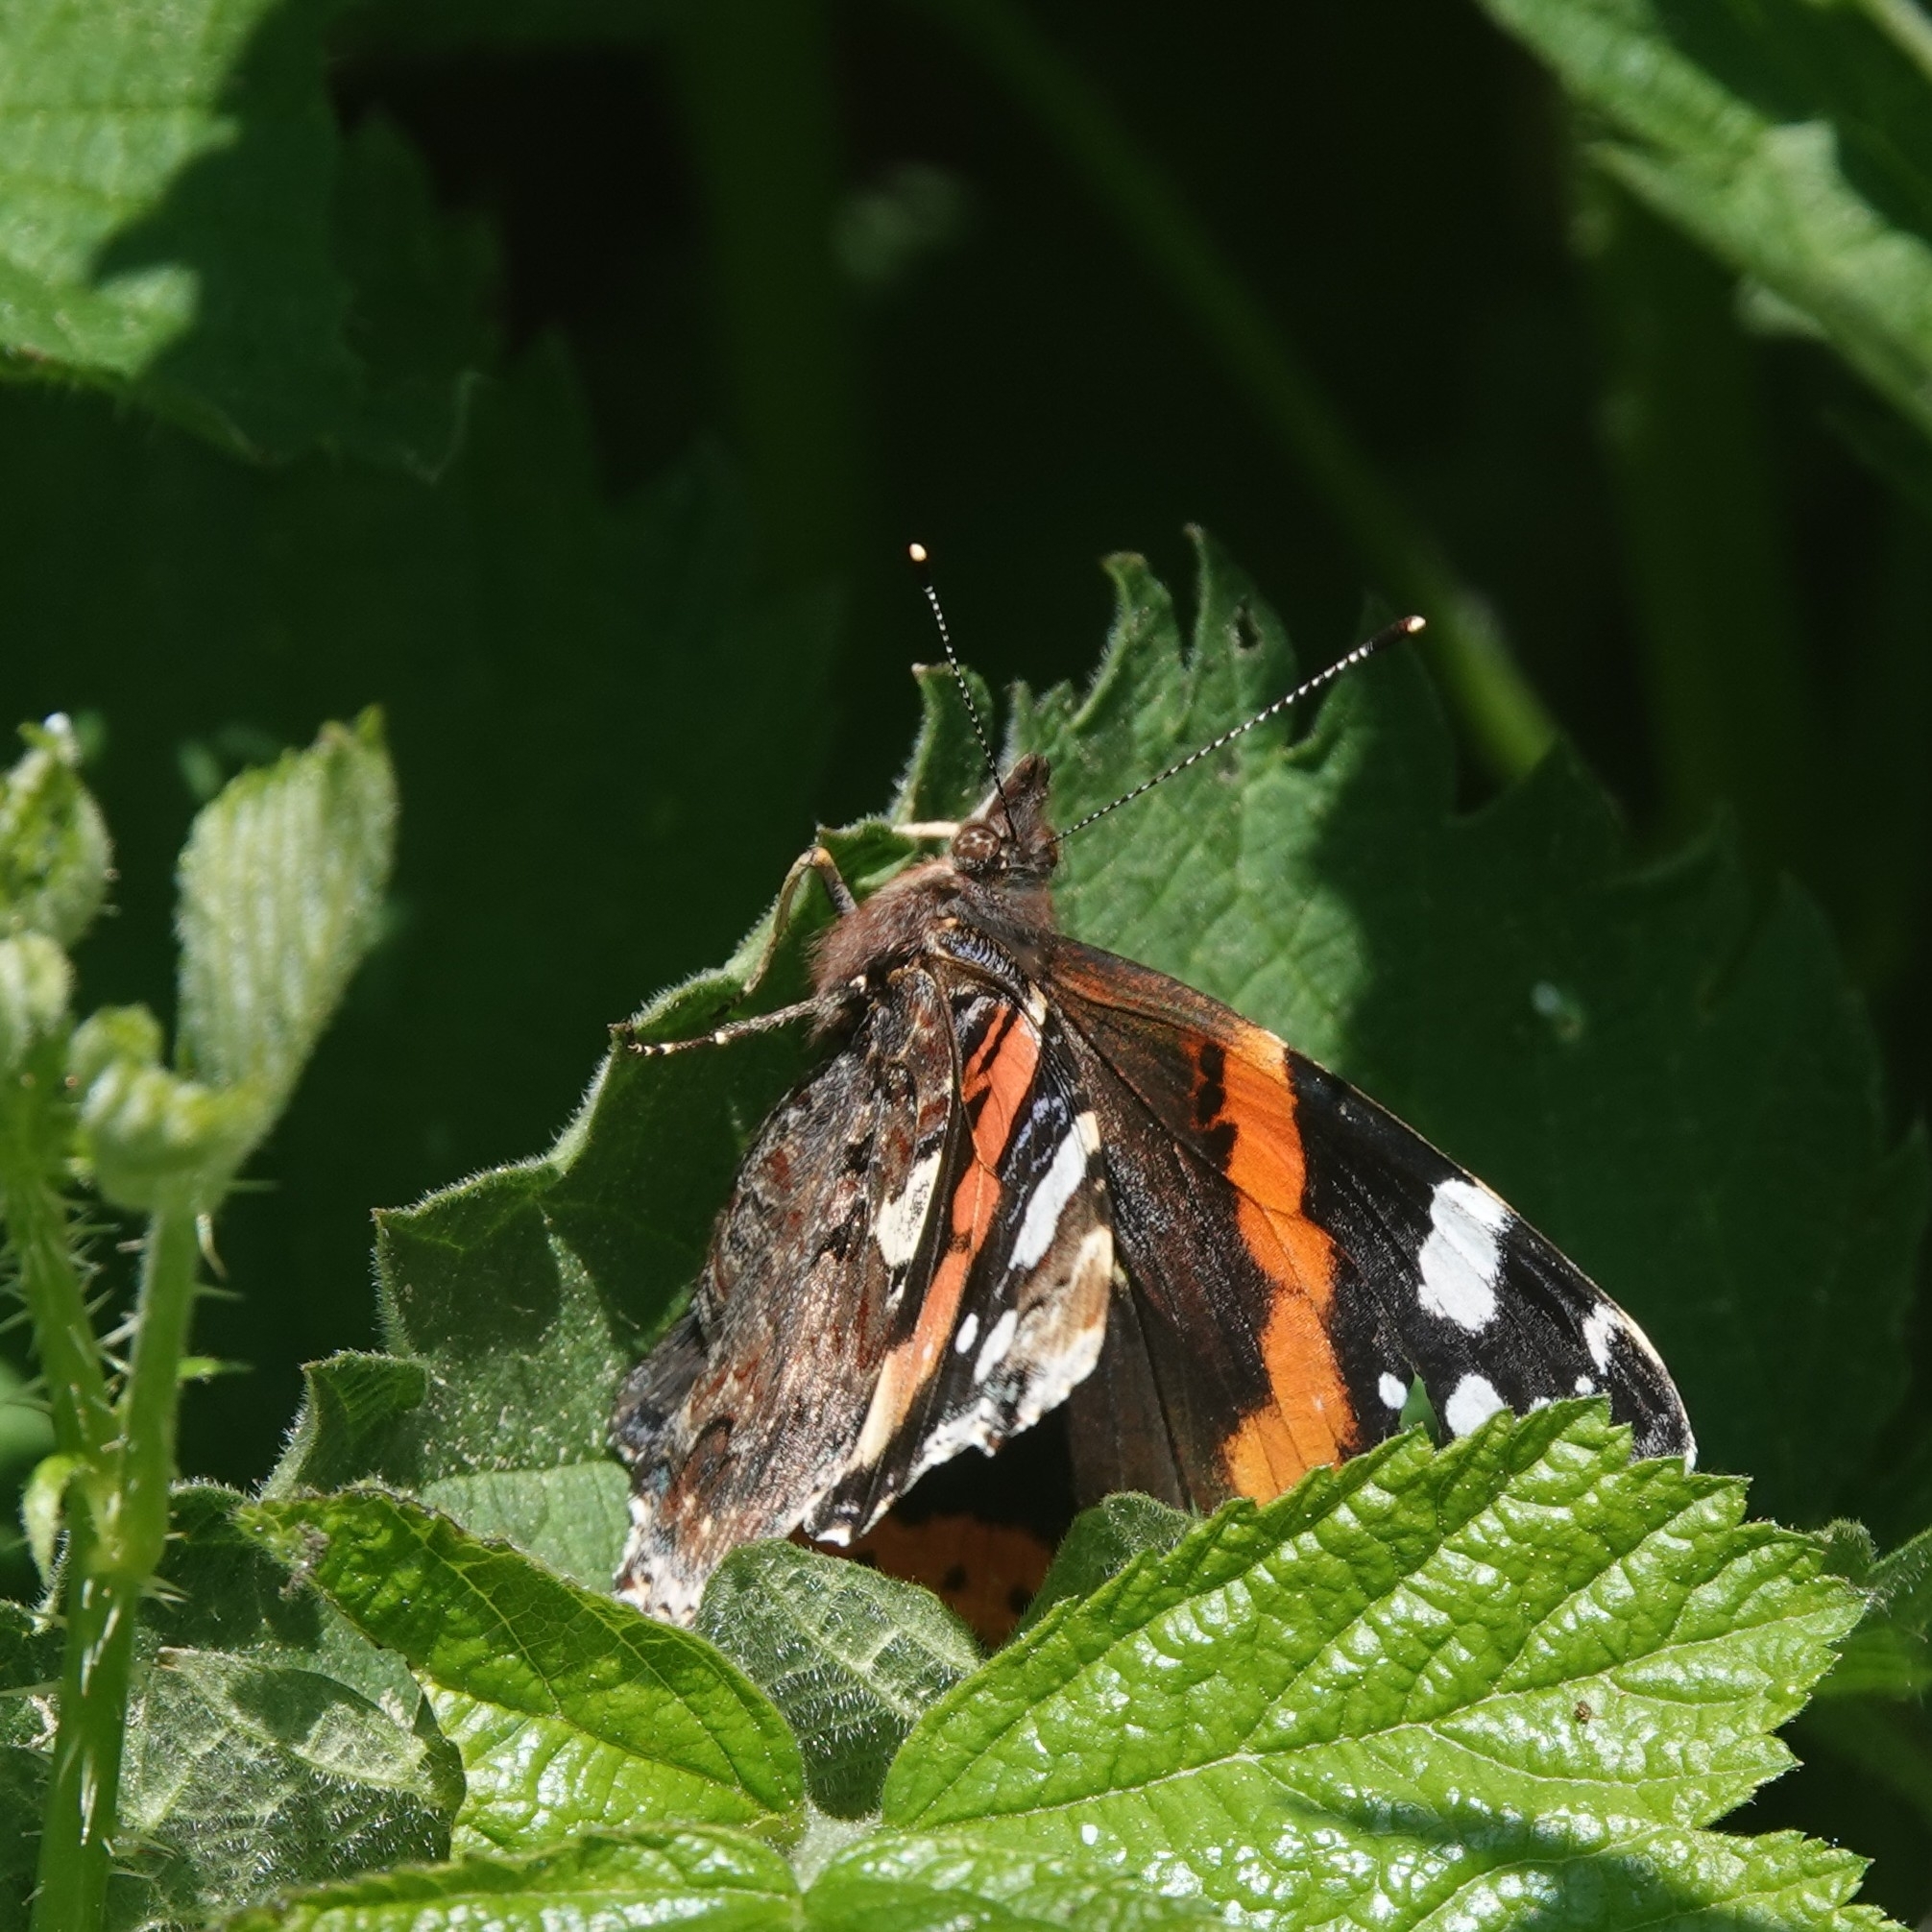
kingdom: Animalia
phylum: Arthropoda
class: Insecta
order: Lepidoptera
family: Nymphalidae
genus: Vanessa
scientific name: Vanessa atalanta
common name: Red admiral
